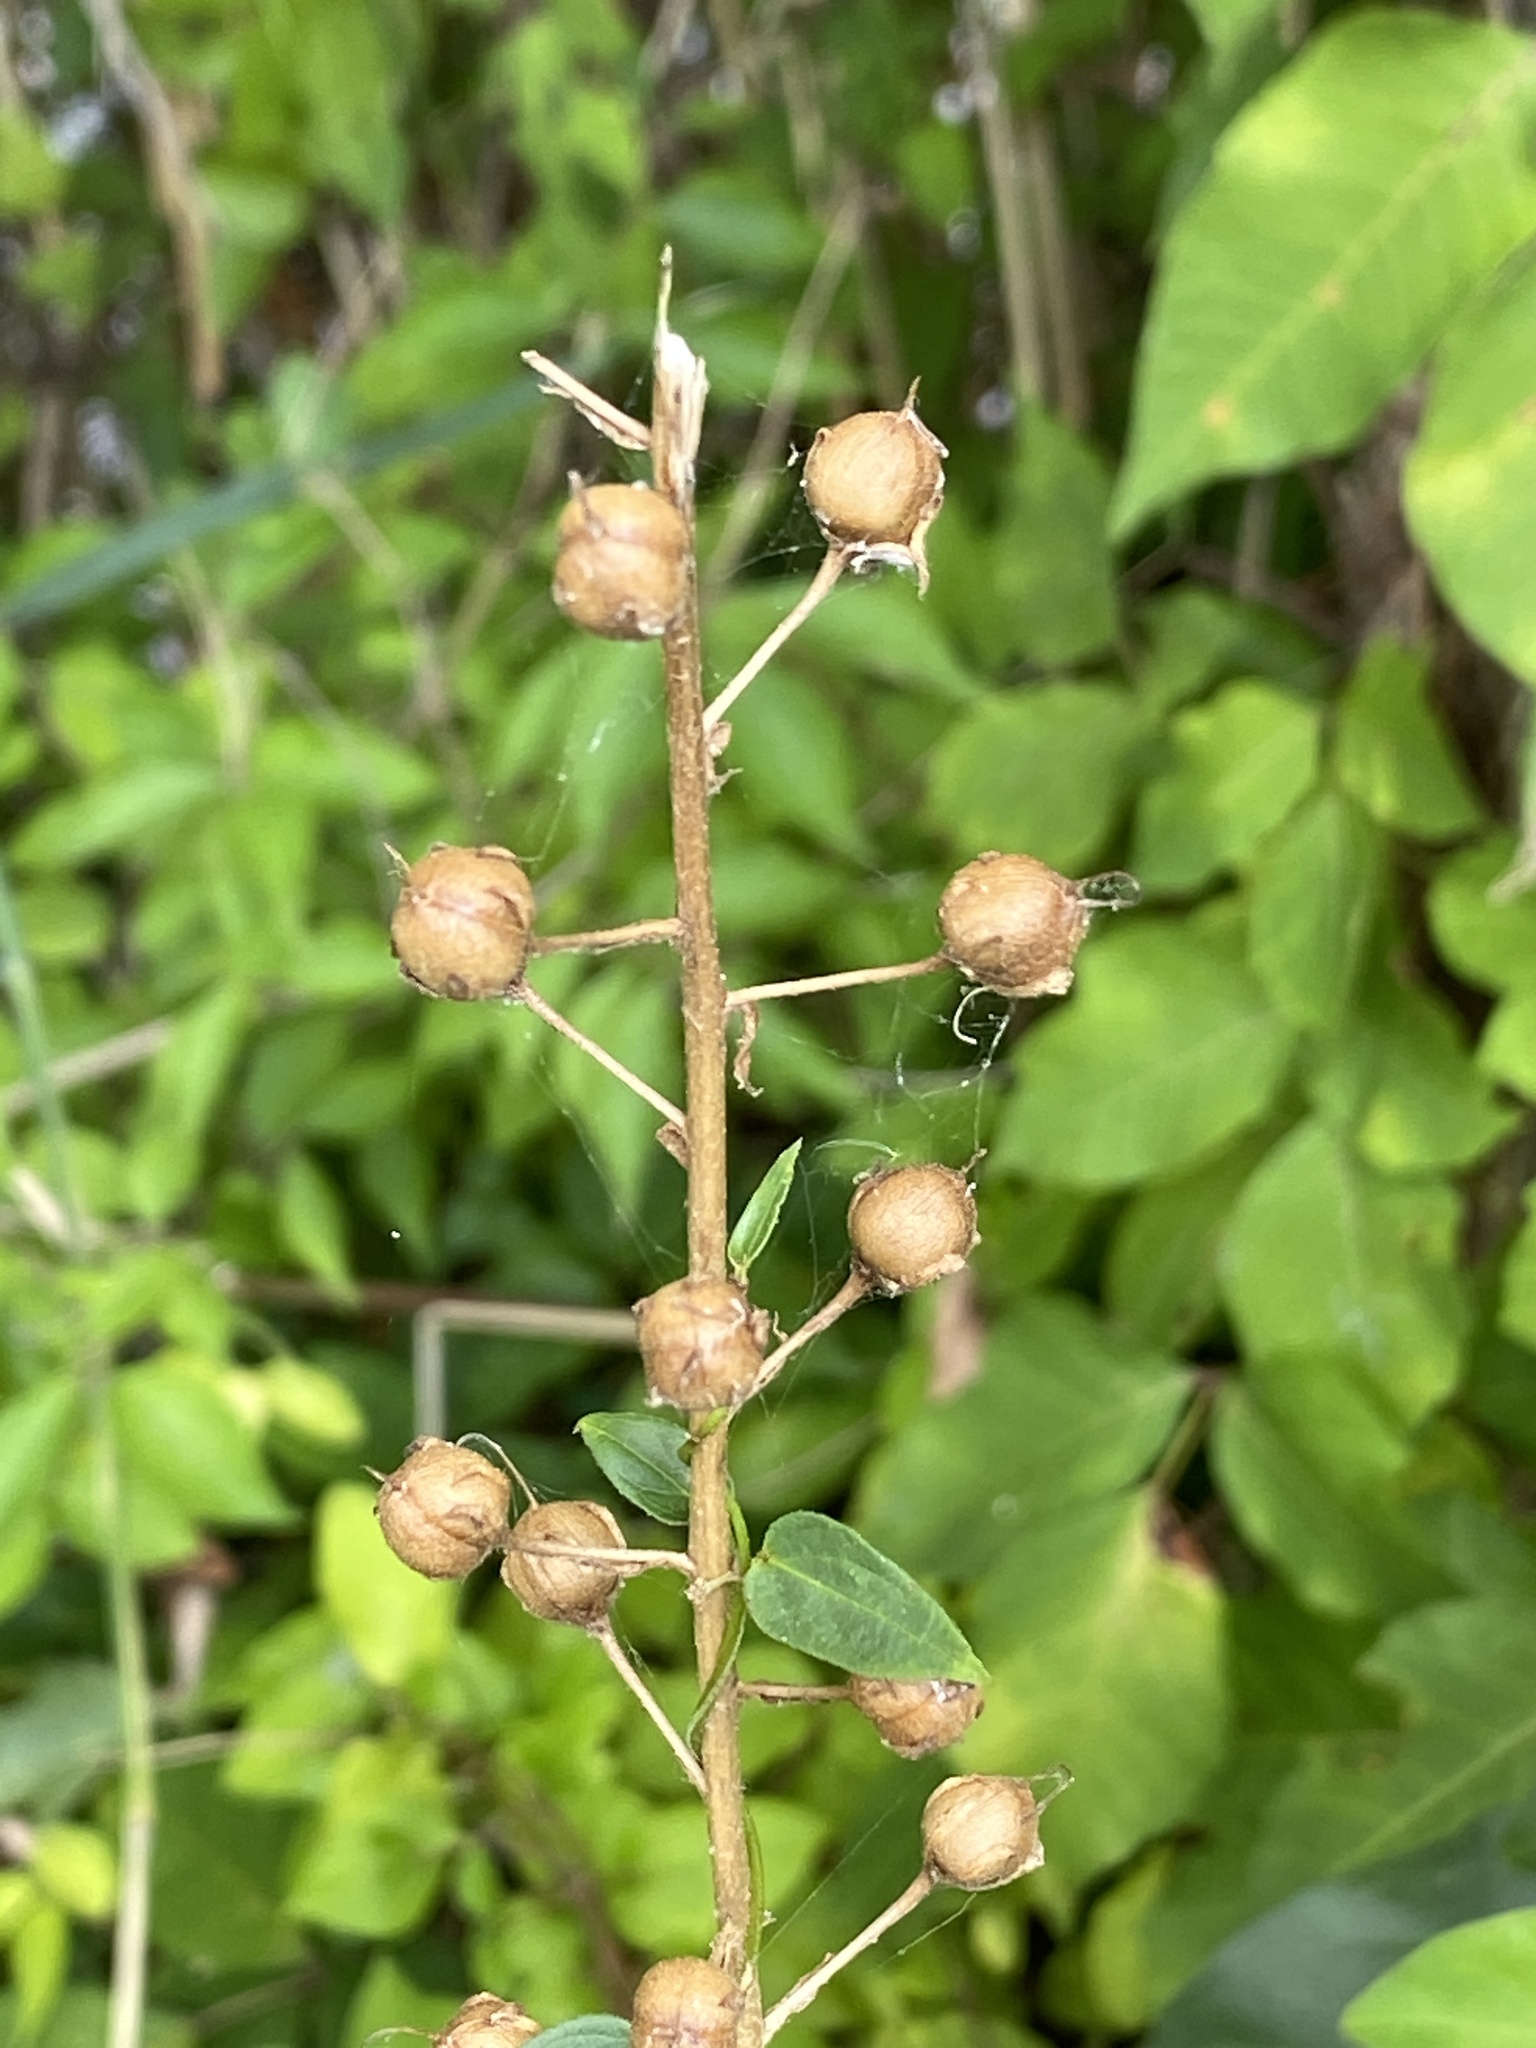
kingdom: Plantae
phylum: Tracheophyta
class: Magnoliopsida
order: Lamiales
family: Scrophulariaceae
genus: Verbascum
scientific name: Verbascum blattaria
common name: Moth mullein
